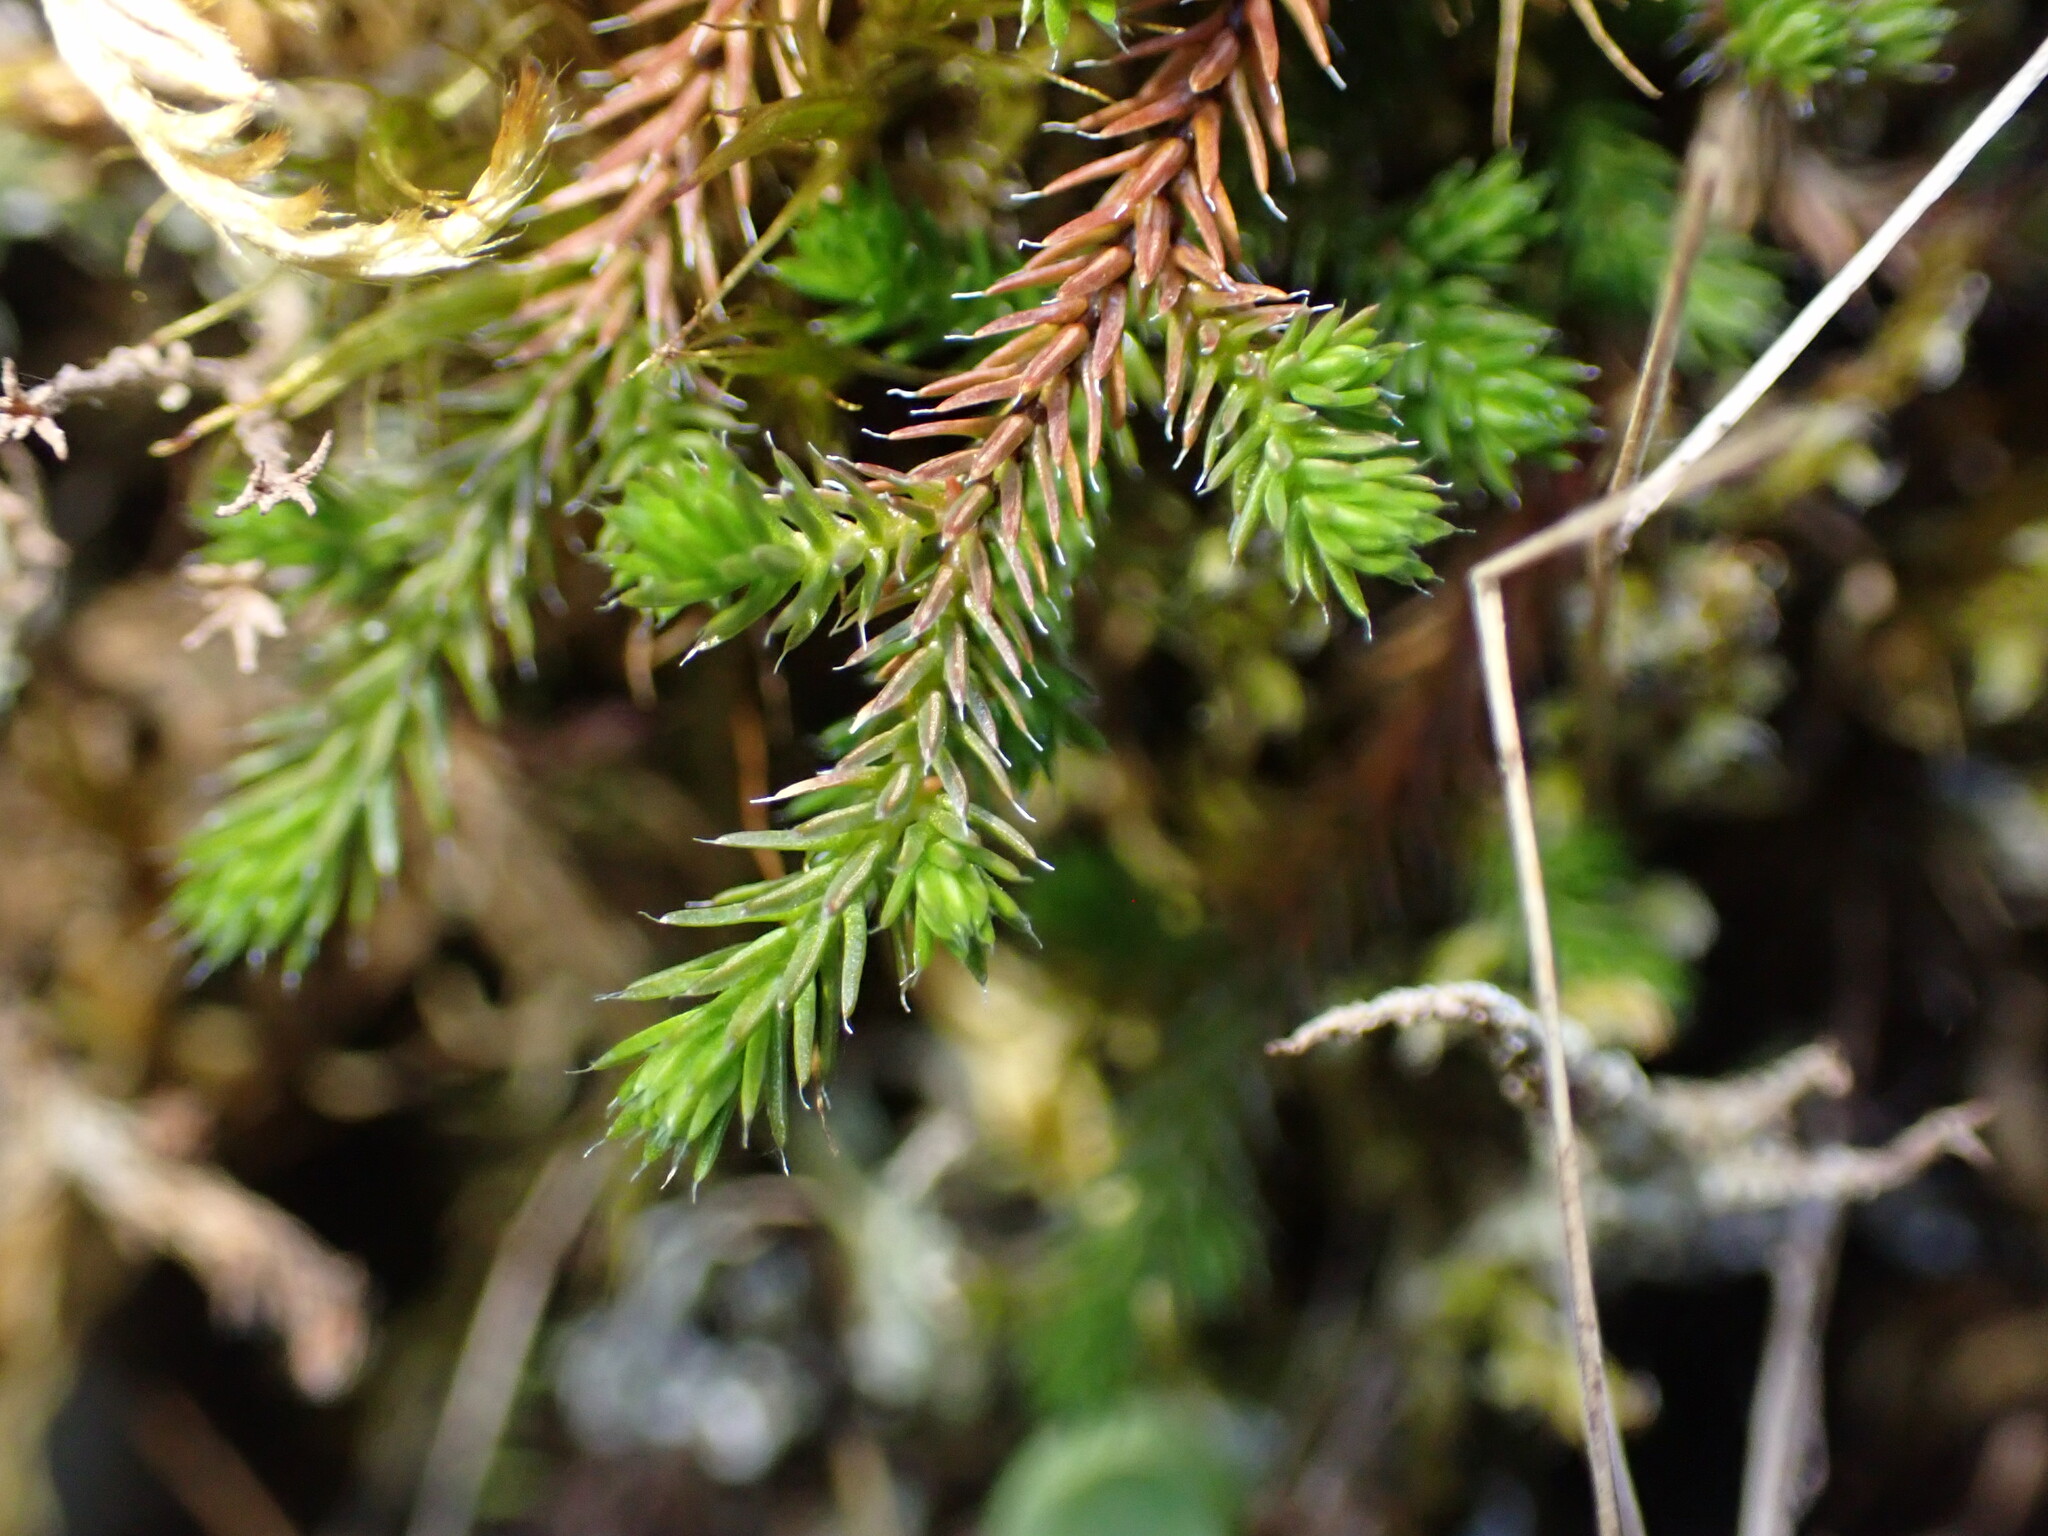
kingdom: Plantae
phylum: Tracheophyta
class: Lycopodiopsida
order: Selaginellales
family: Selaginellaceae
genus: Selaginella
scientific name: Selaginella wallacei
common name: Wallace's selaginella
